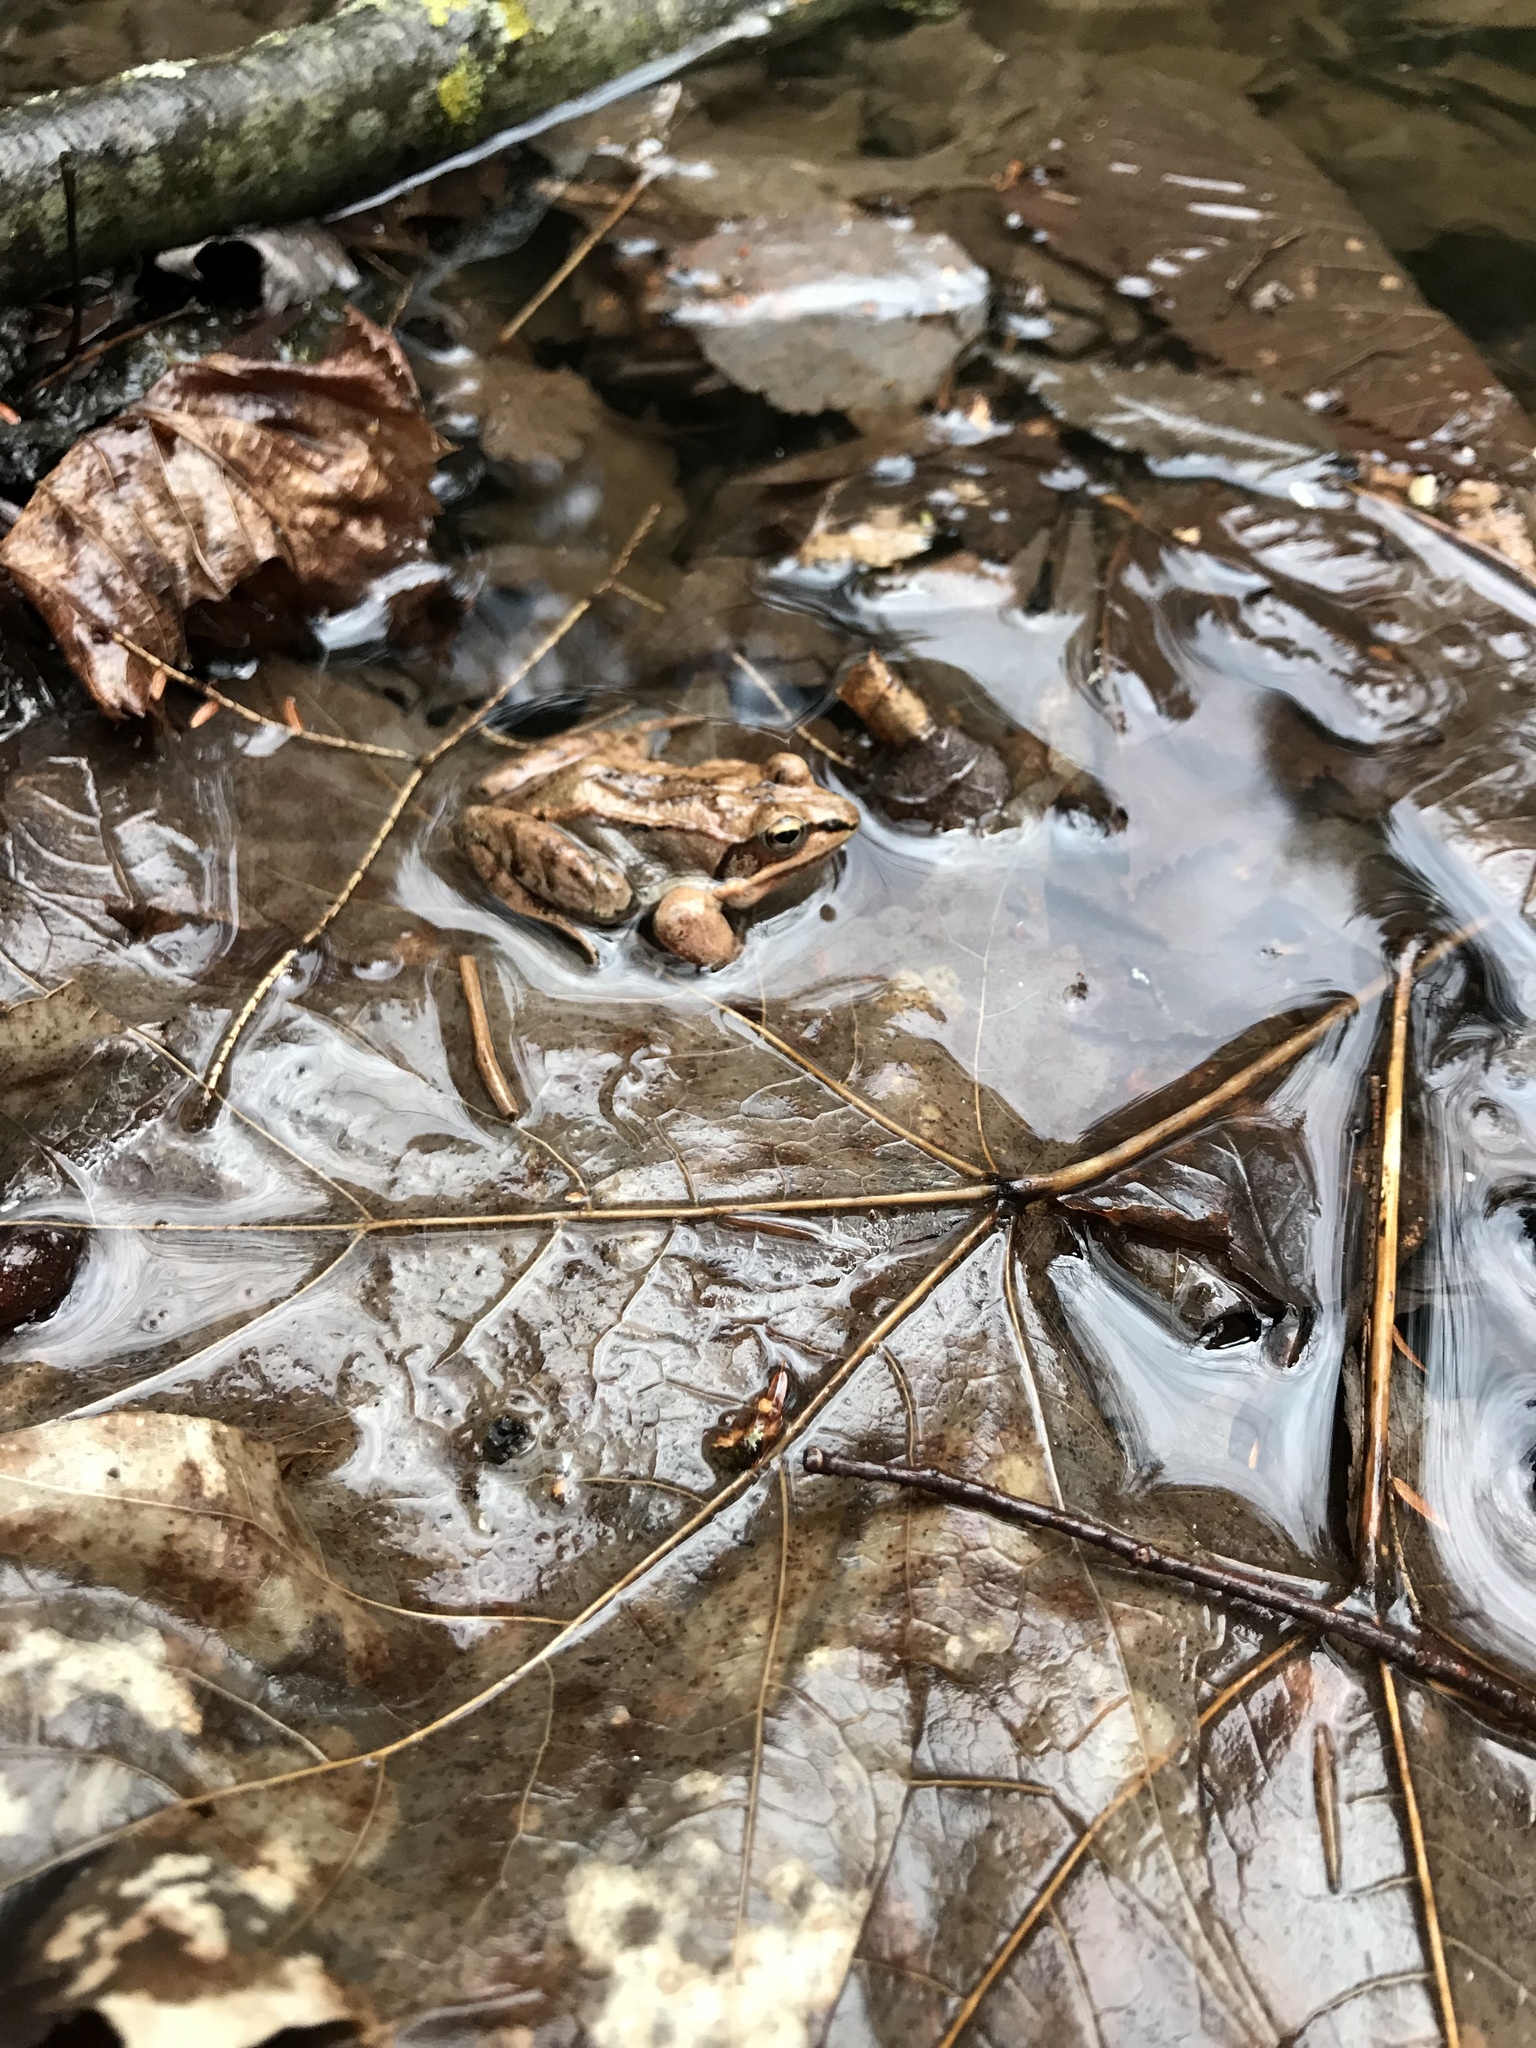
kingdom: Animalia
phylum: Chordata
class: Amphibia
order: Anura
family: Ranidae
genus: Lithobates
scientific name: Lithobates sylvaticus
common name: Wood frog
